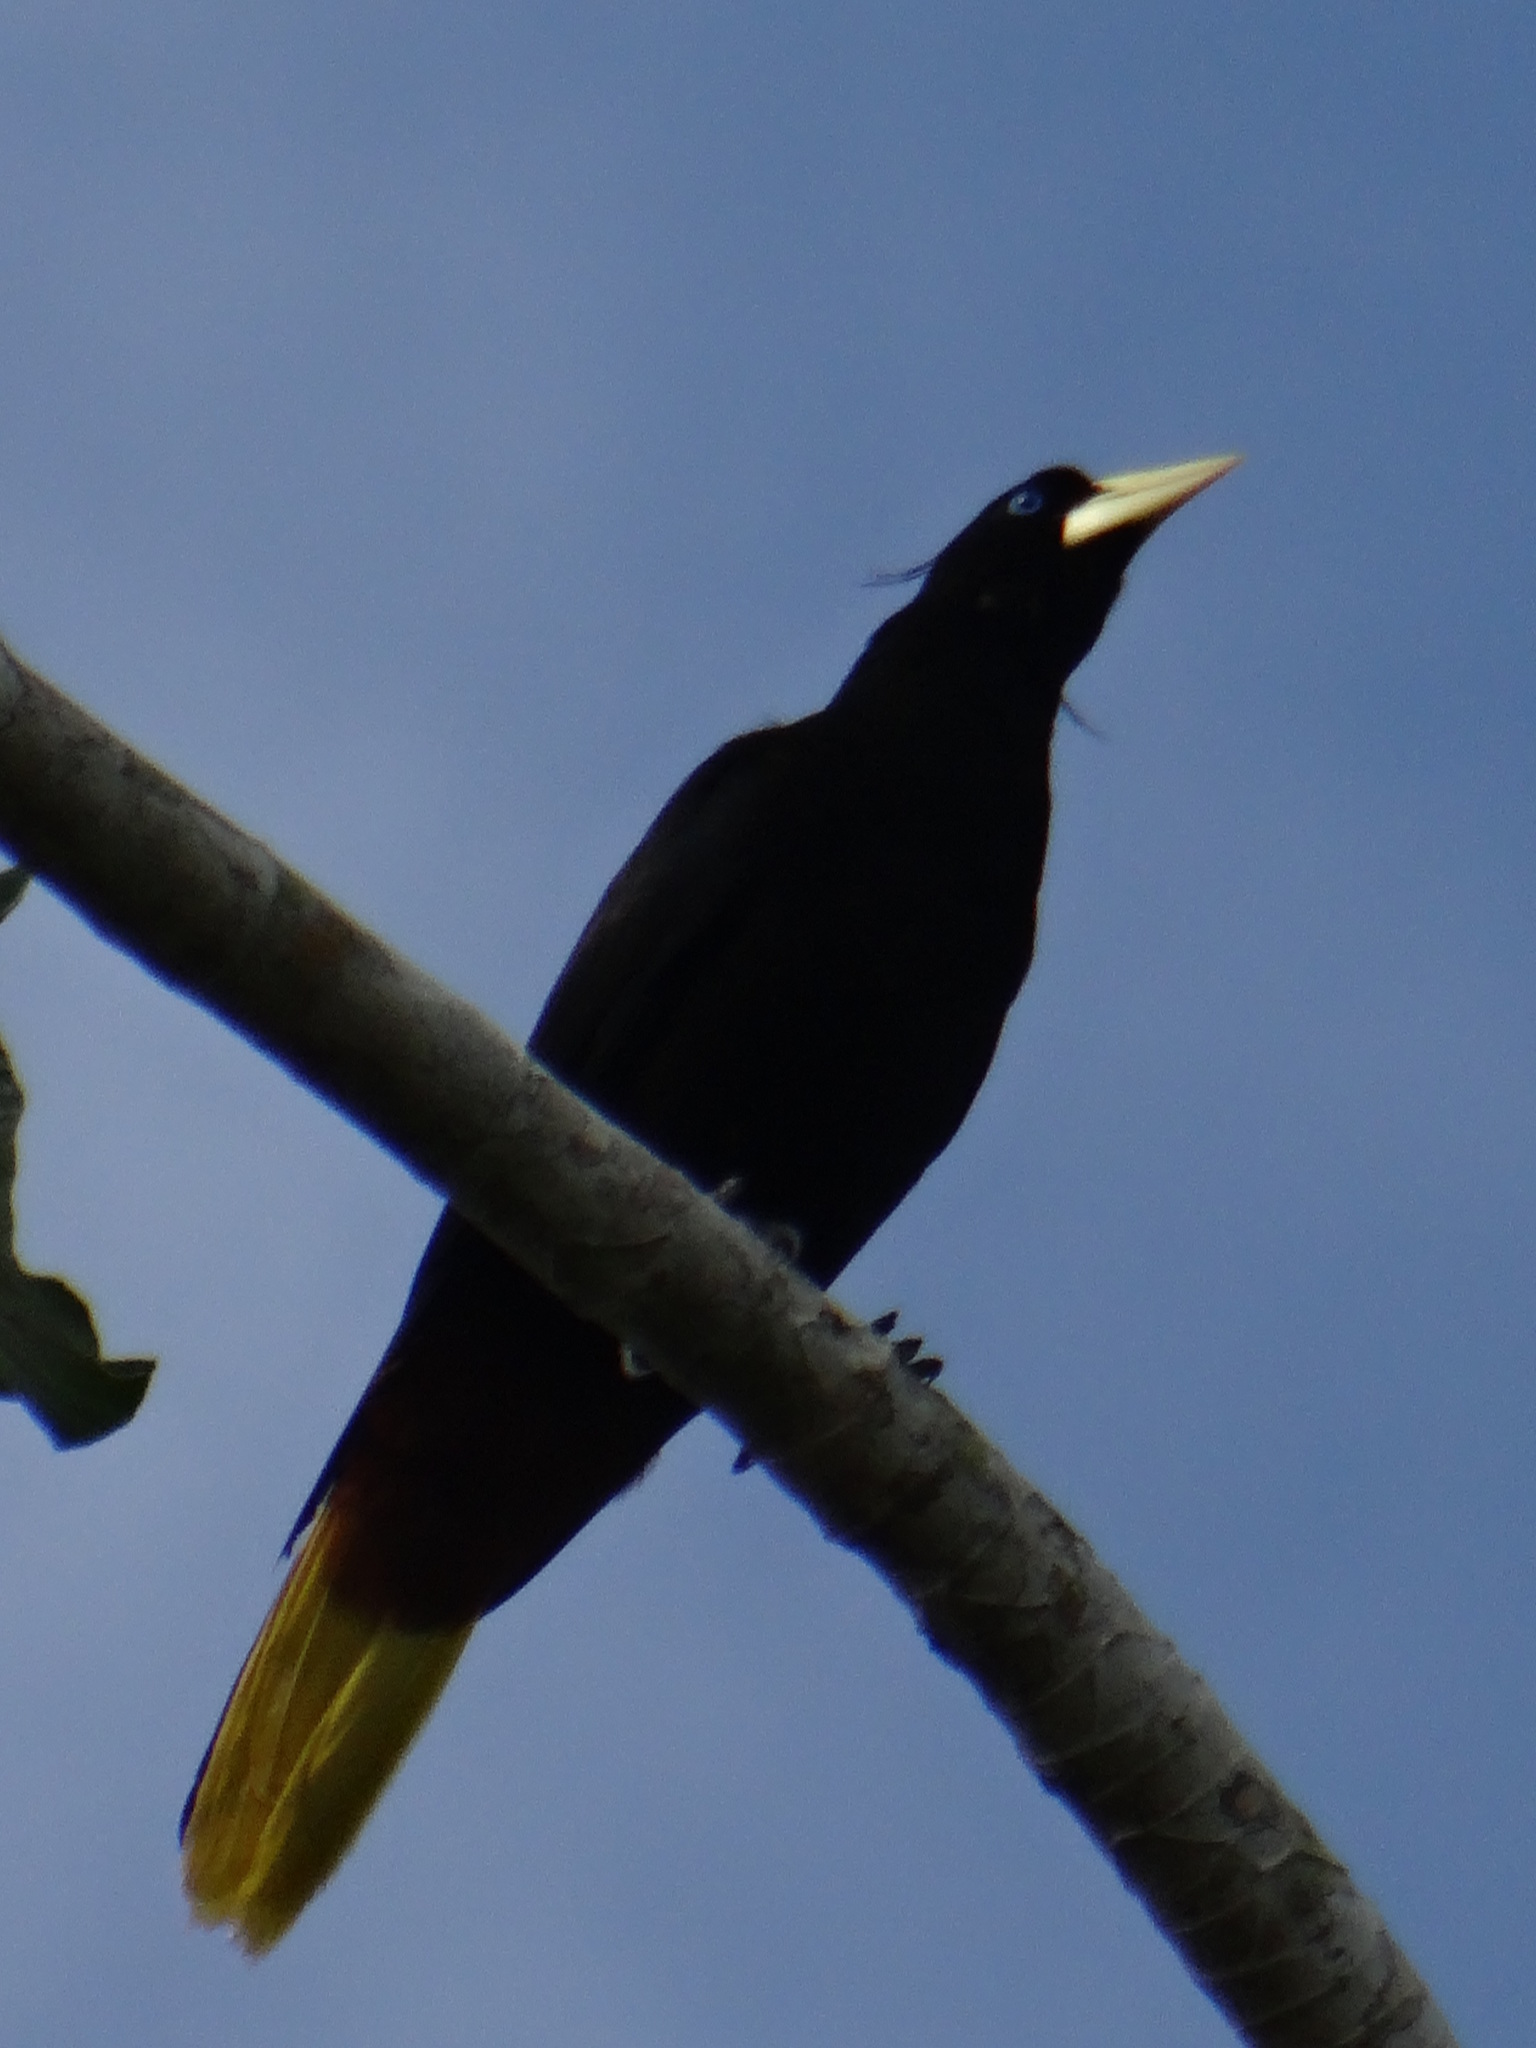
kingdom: Animalia
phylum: Chordata
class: Aves
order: Passeriformes
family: Icteridae
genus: Psarocolius
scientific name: Psarocolius decumanus
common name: Crested oropendola
